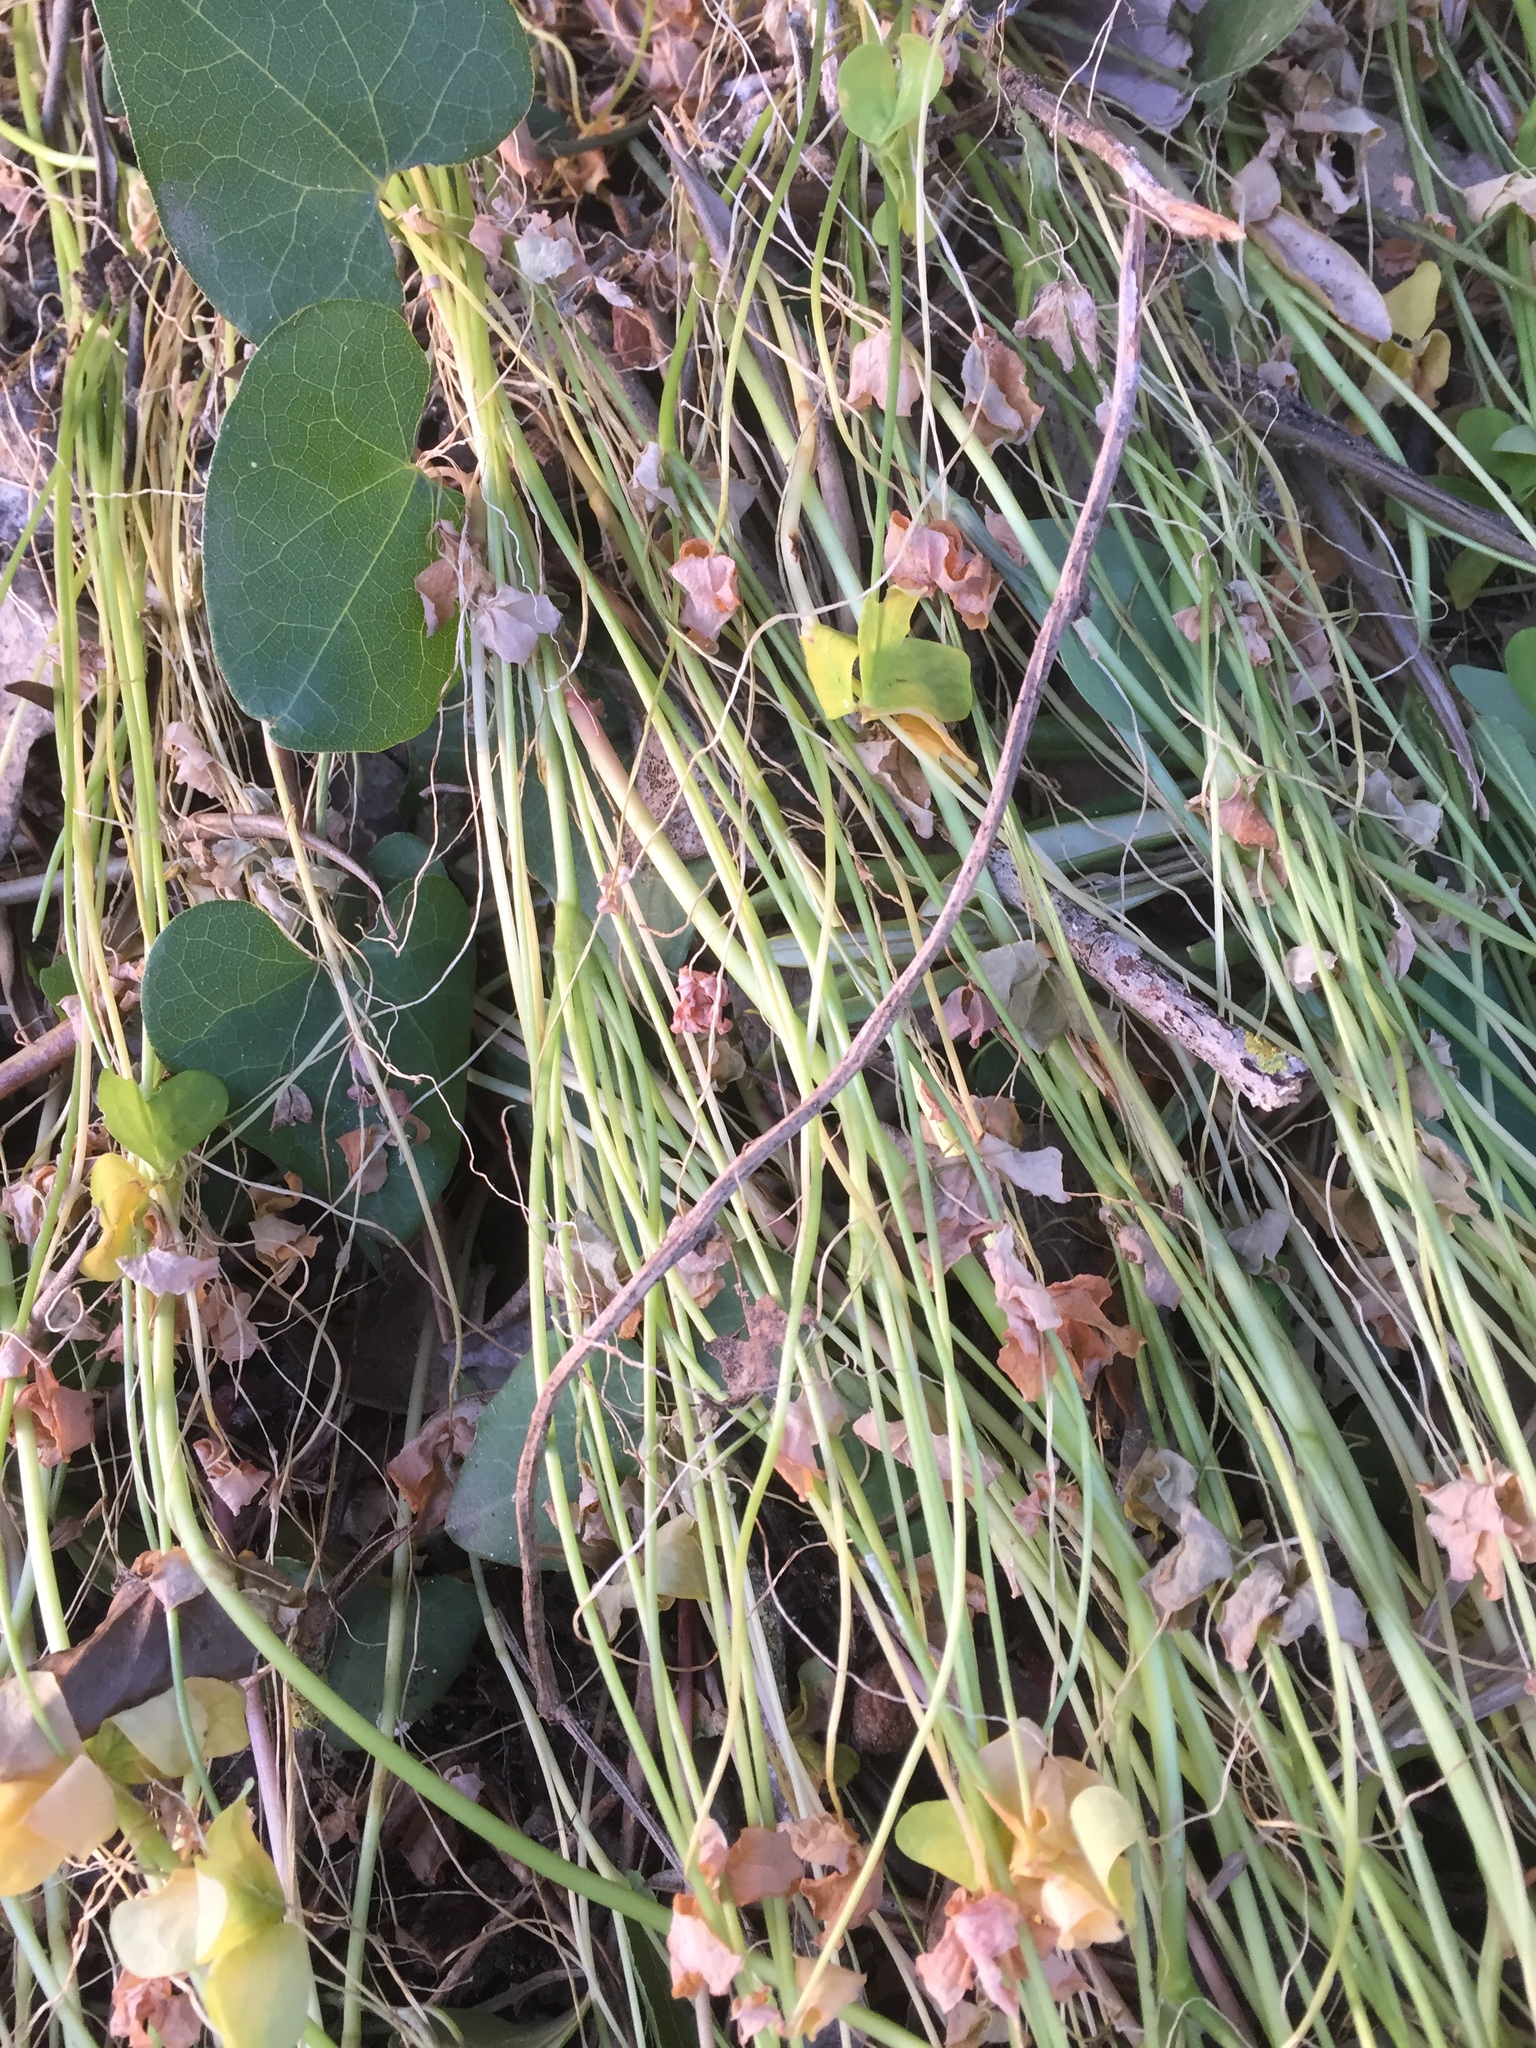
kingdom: Plantae
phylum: Tracheophyta
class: Magnoliopsida
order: Oxalidales
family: Oxalidaceae
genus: Oxalis
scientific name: Oxalis pes-caprae
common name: Bermuda-buttercup
